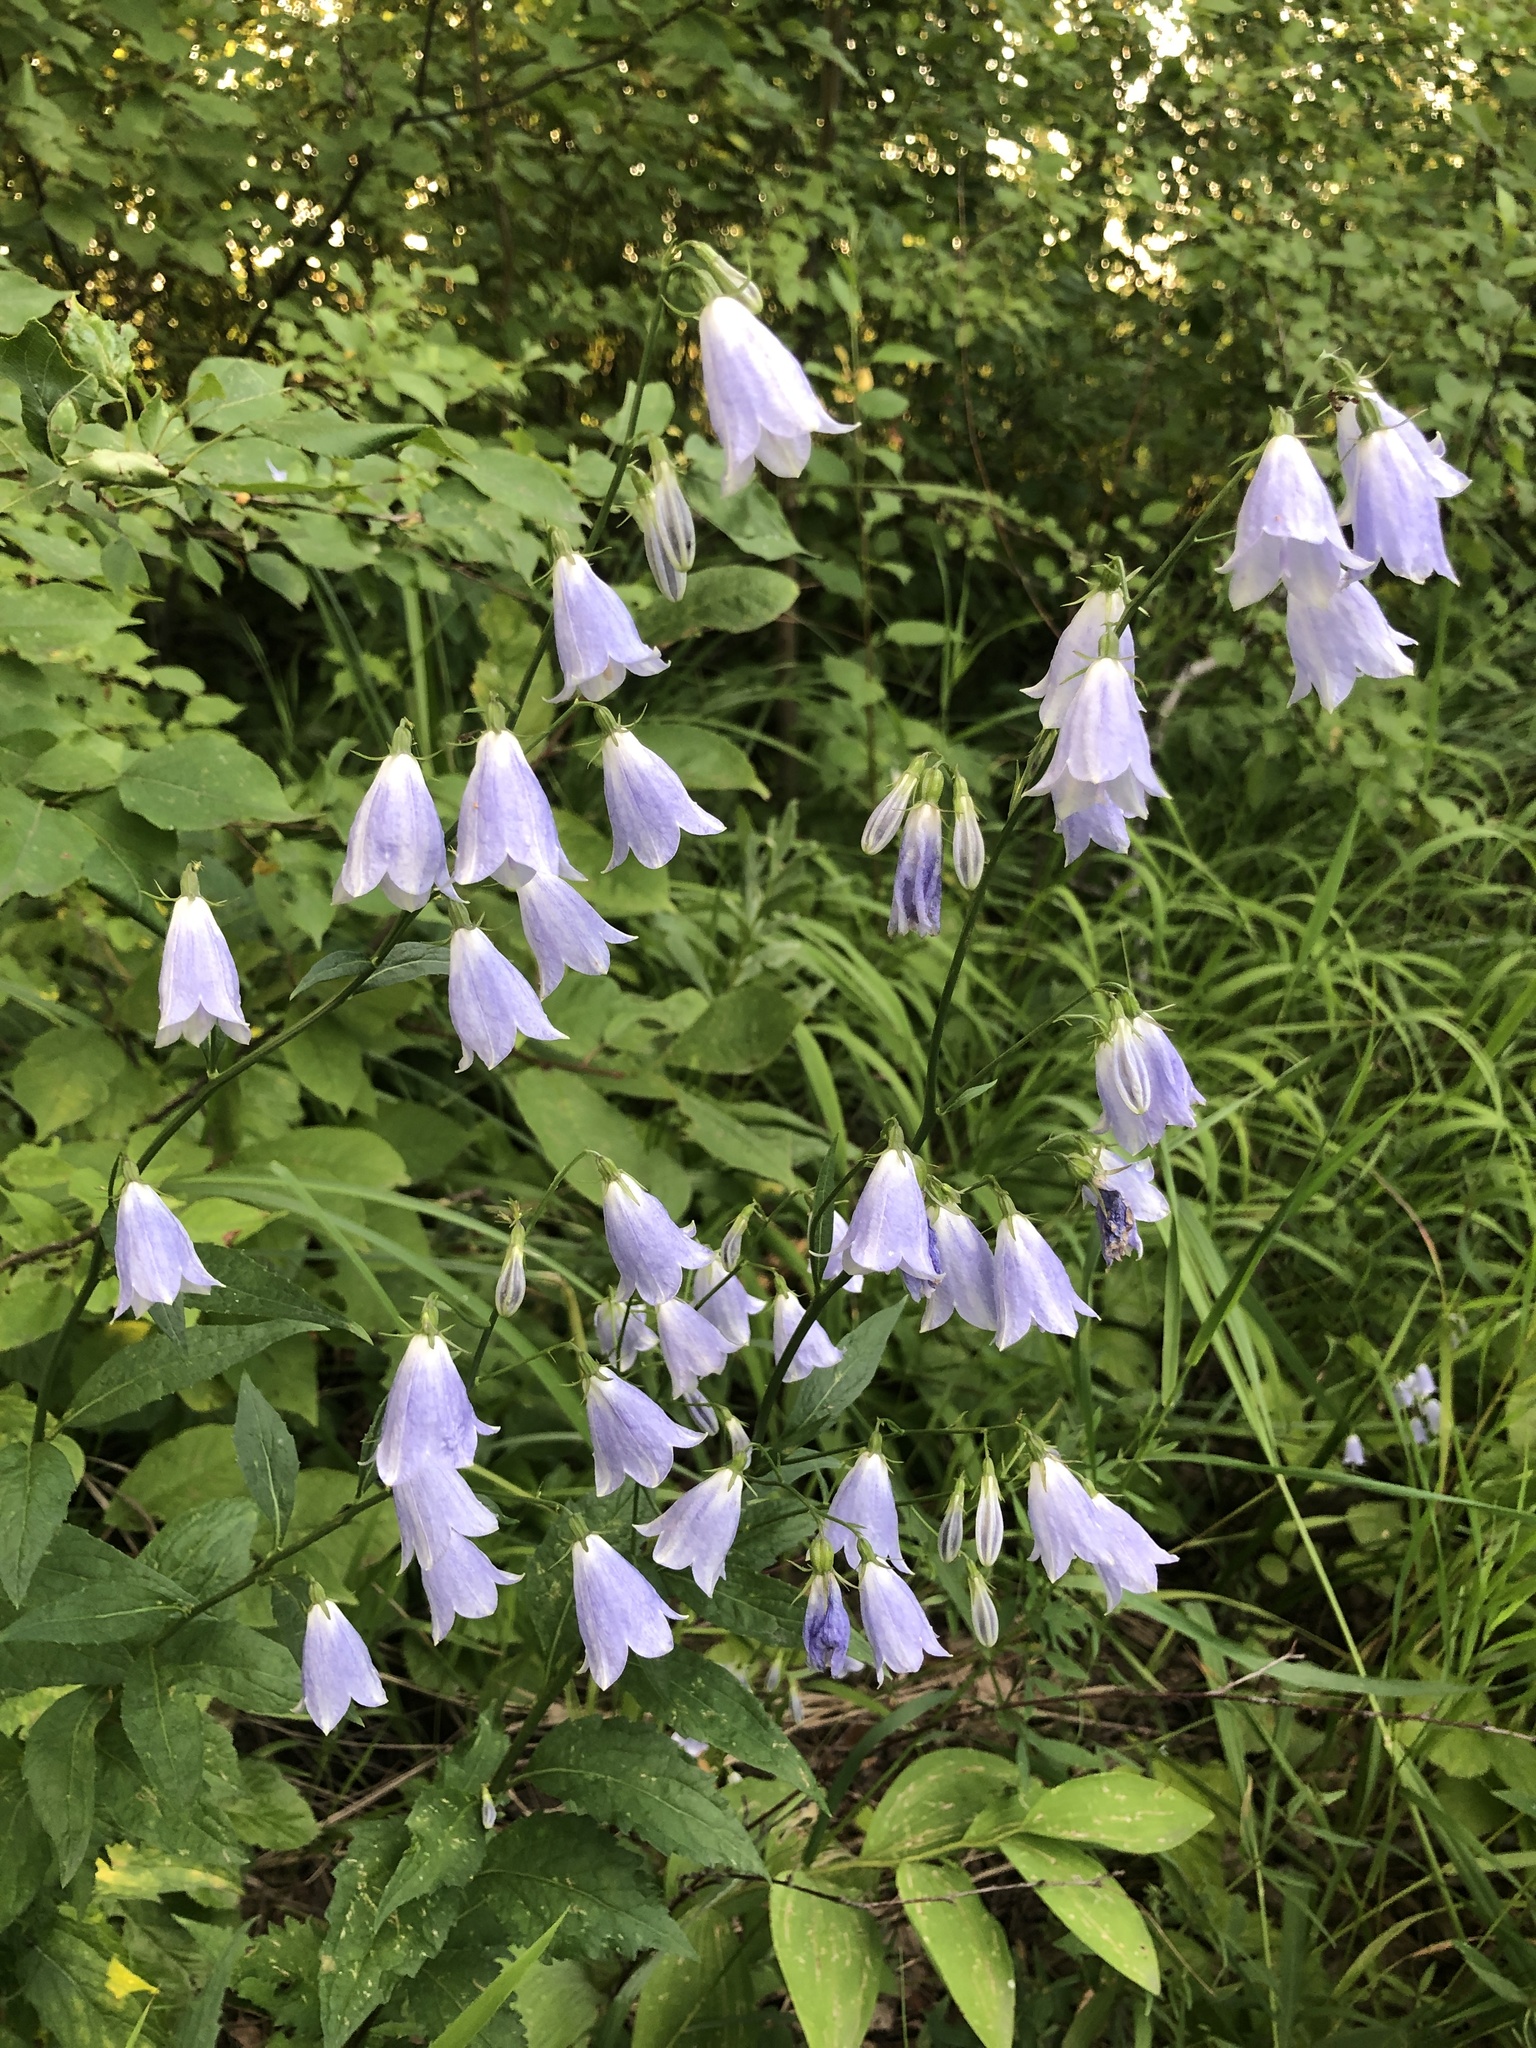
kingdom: Plantae
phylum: Tracheophyta
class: Magnoliopsida
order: Asterales
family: Campanulaceae
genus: Adenophora
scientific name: Adenophora liliifolia
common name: Lilyleaf ladybells
